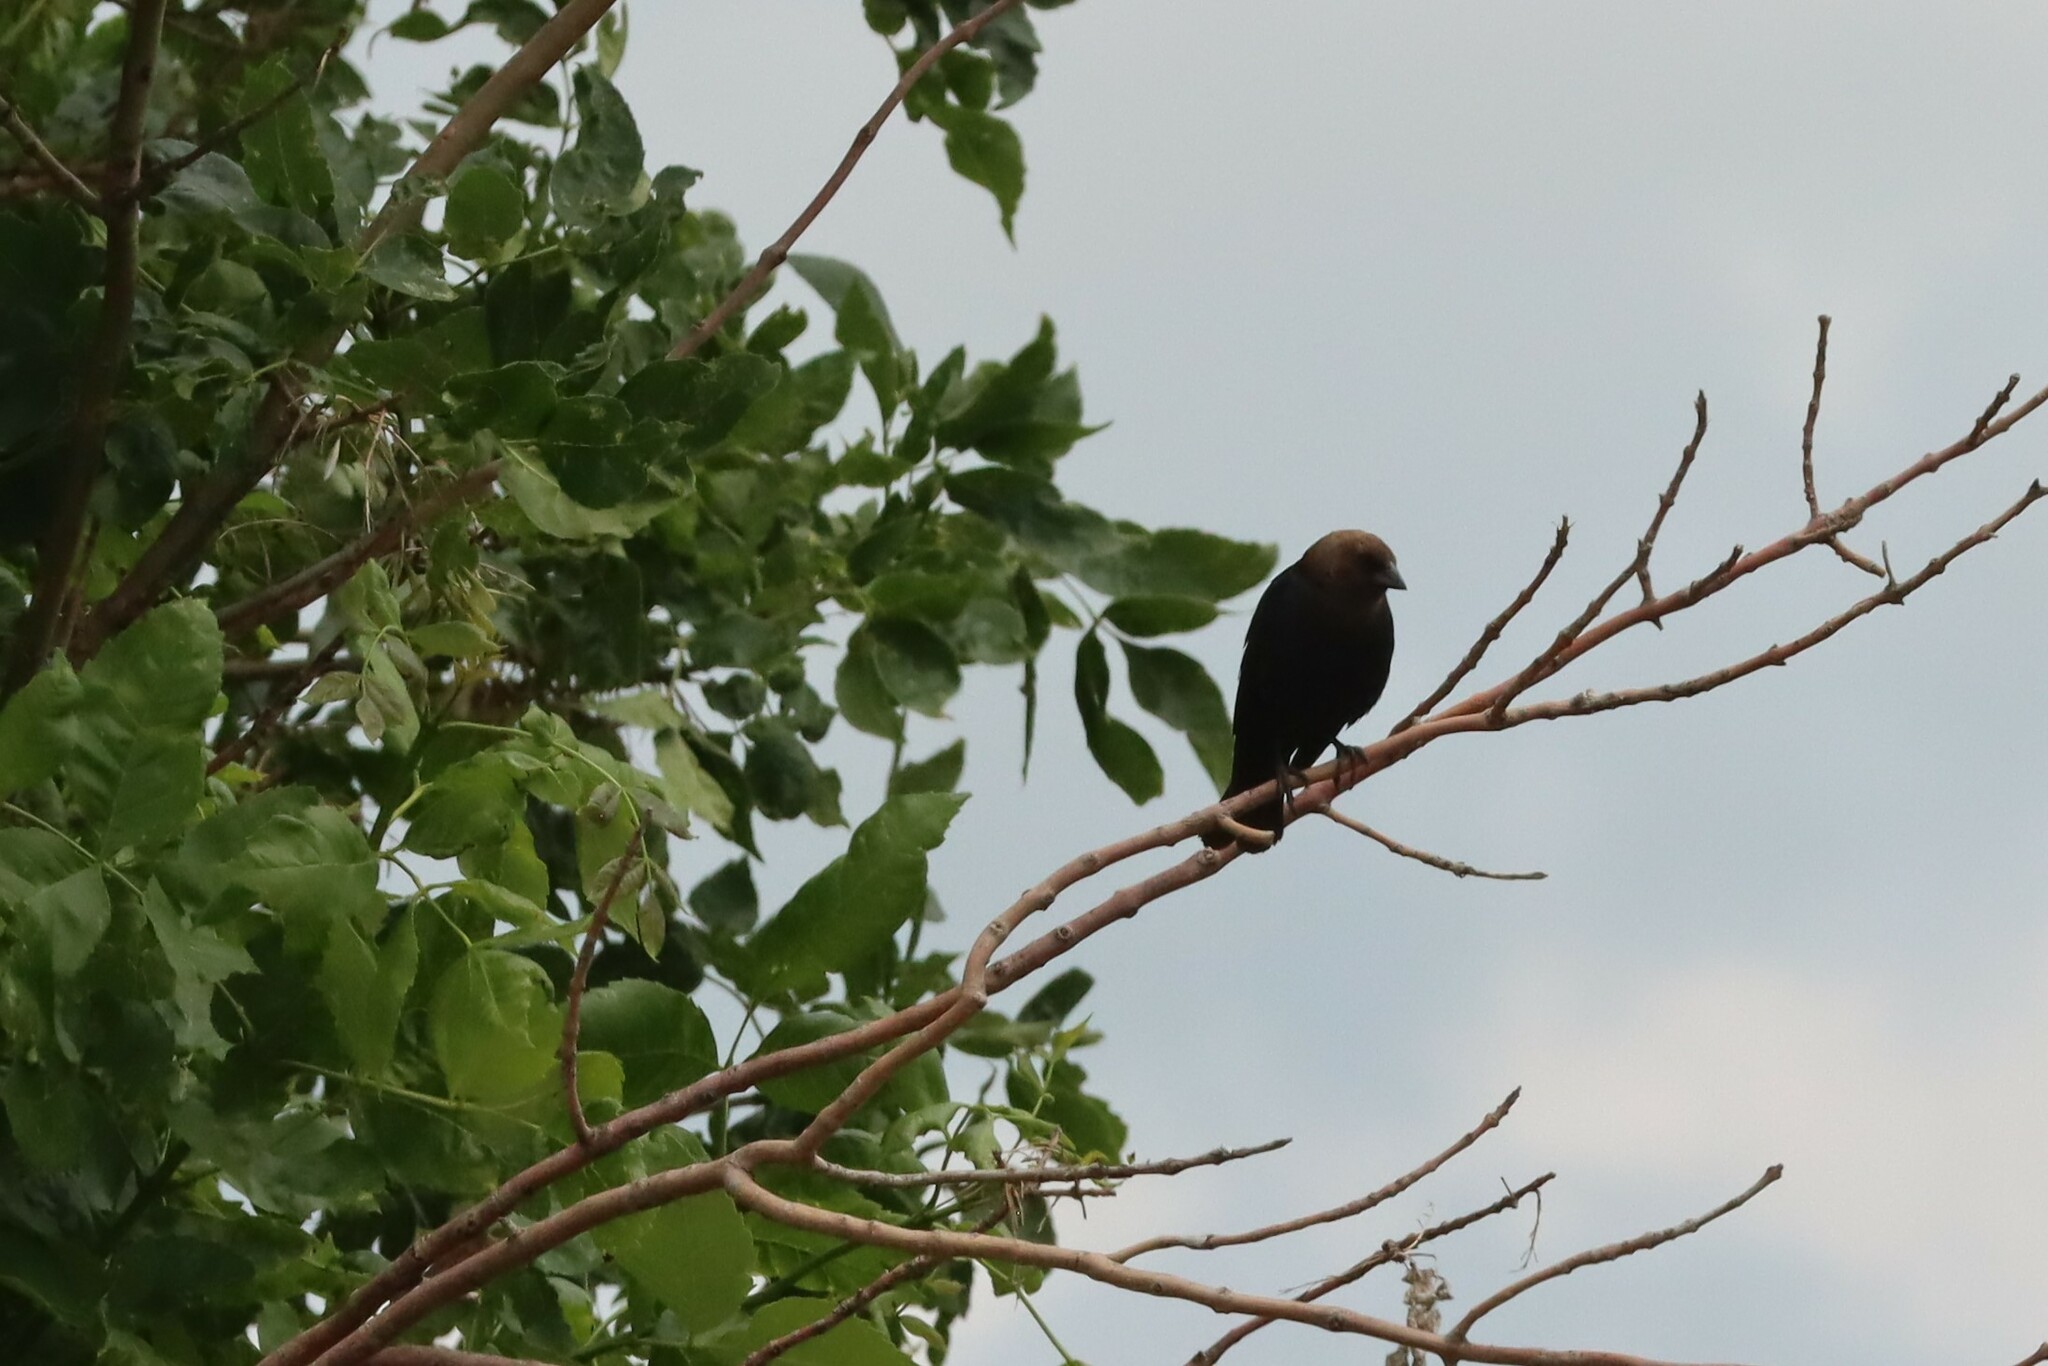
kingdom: Animalia
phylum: Chordata
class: Aves
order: Passeriformes
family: Icteridae
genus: Molothrus
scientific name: Molothrus ater
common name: Brown-headed cowbird
